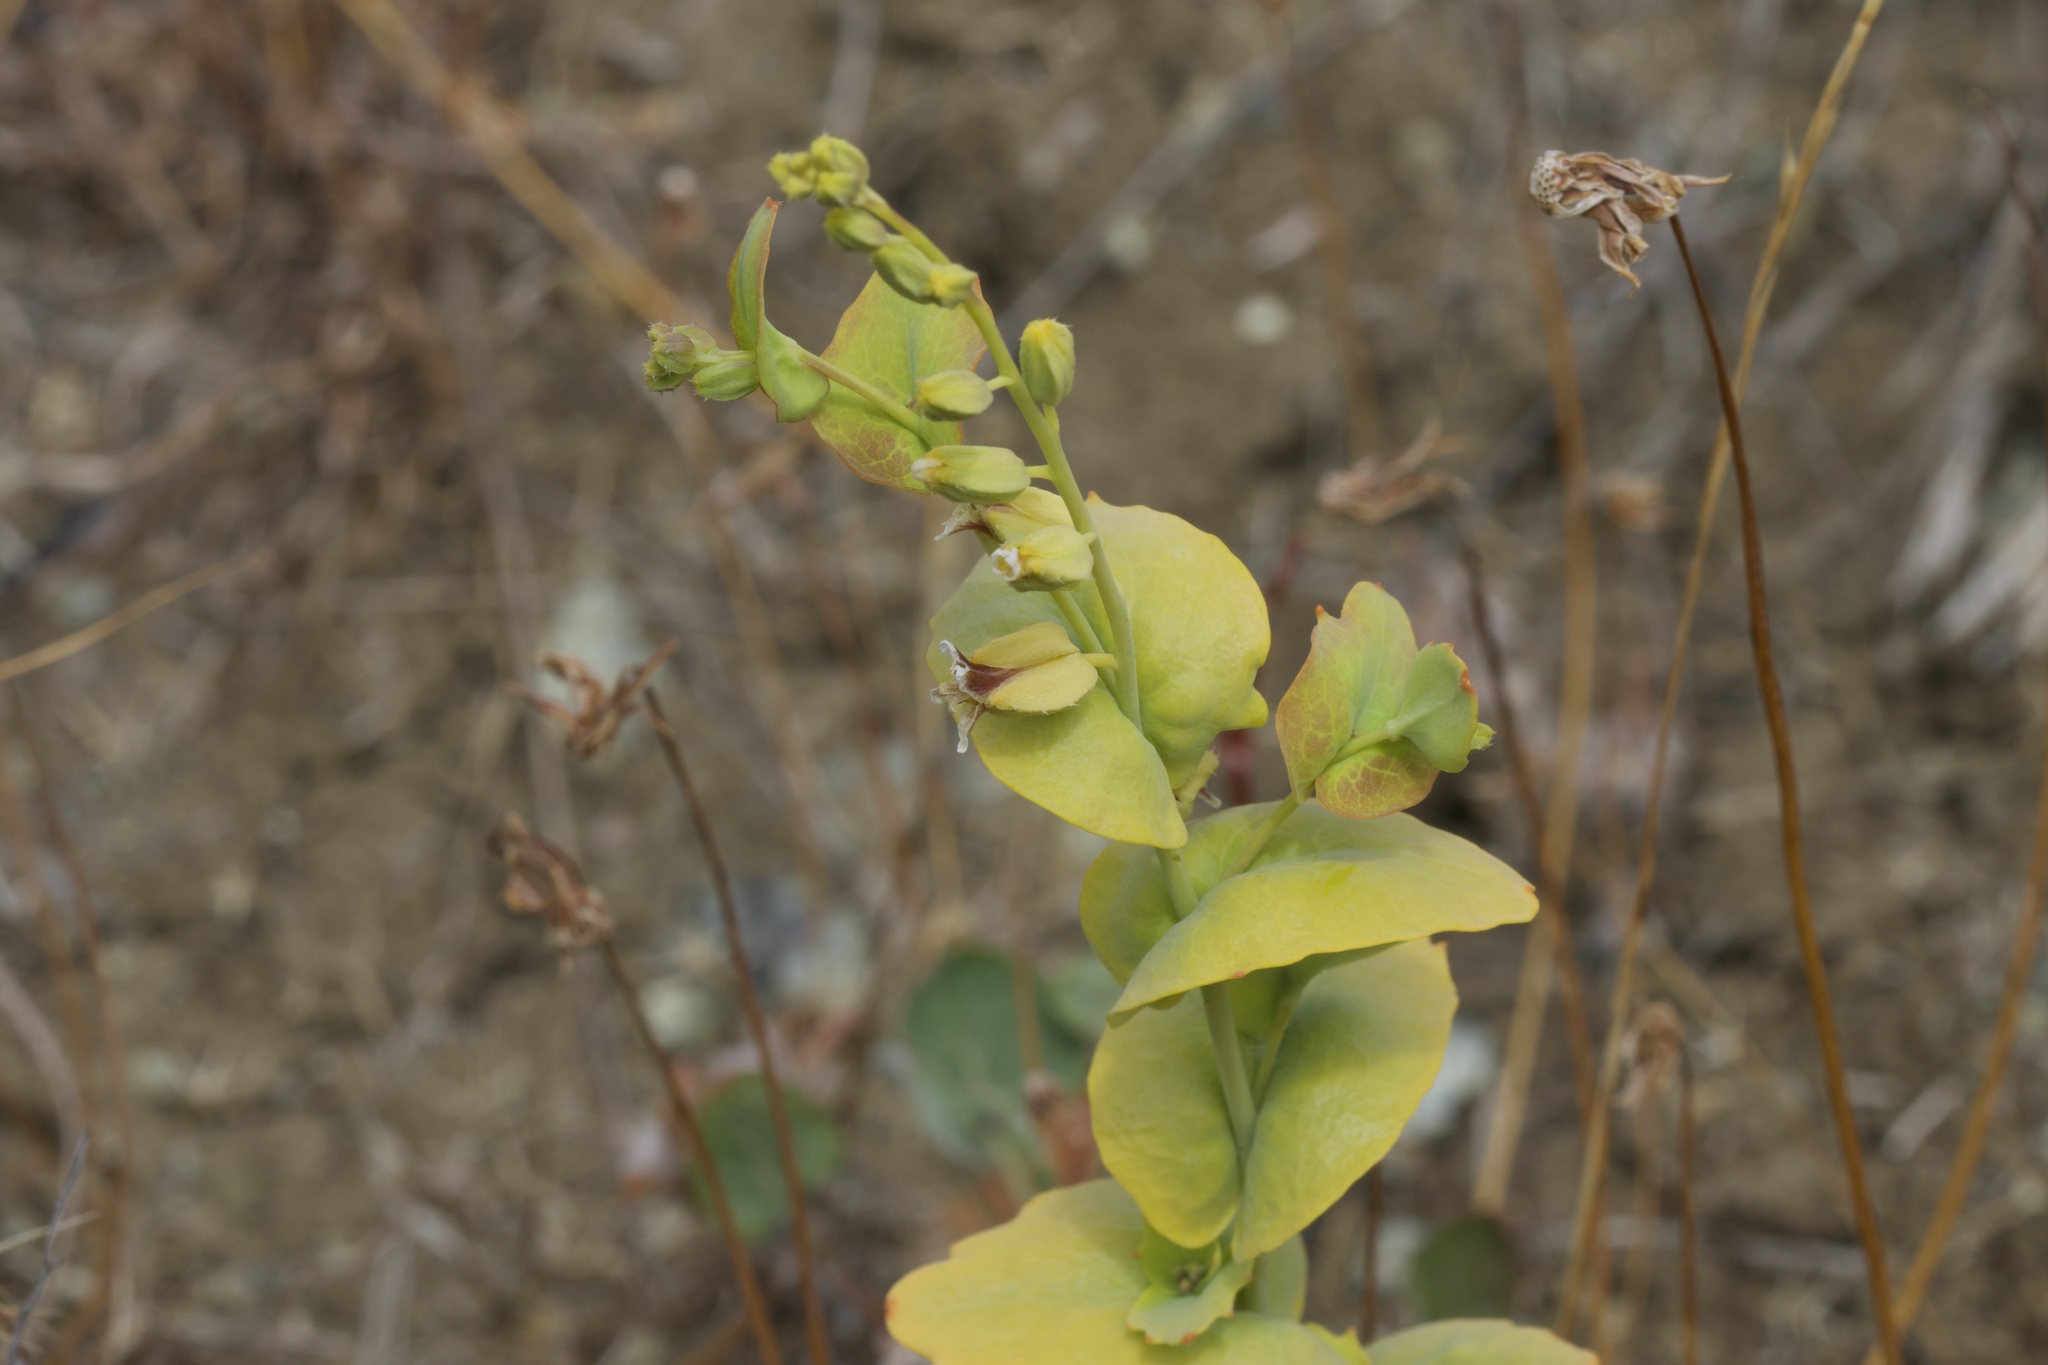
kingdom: Plantae
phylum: Tracheophyta
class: Magnoliopsida
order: Brassicales
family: Brassicaceae
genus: Streptanthus
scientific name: Streptanthus anomalus
